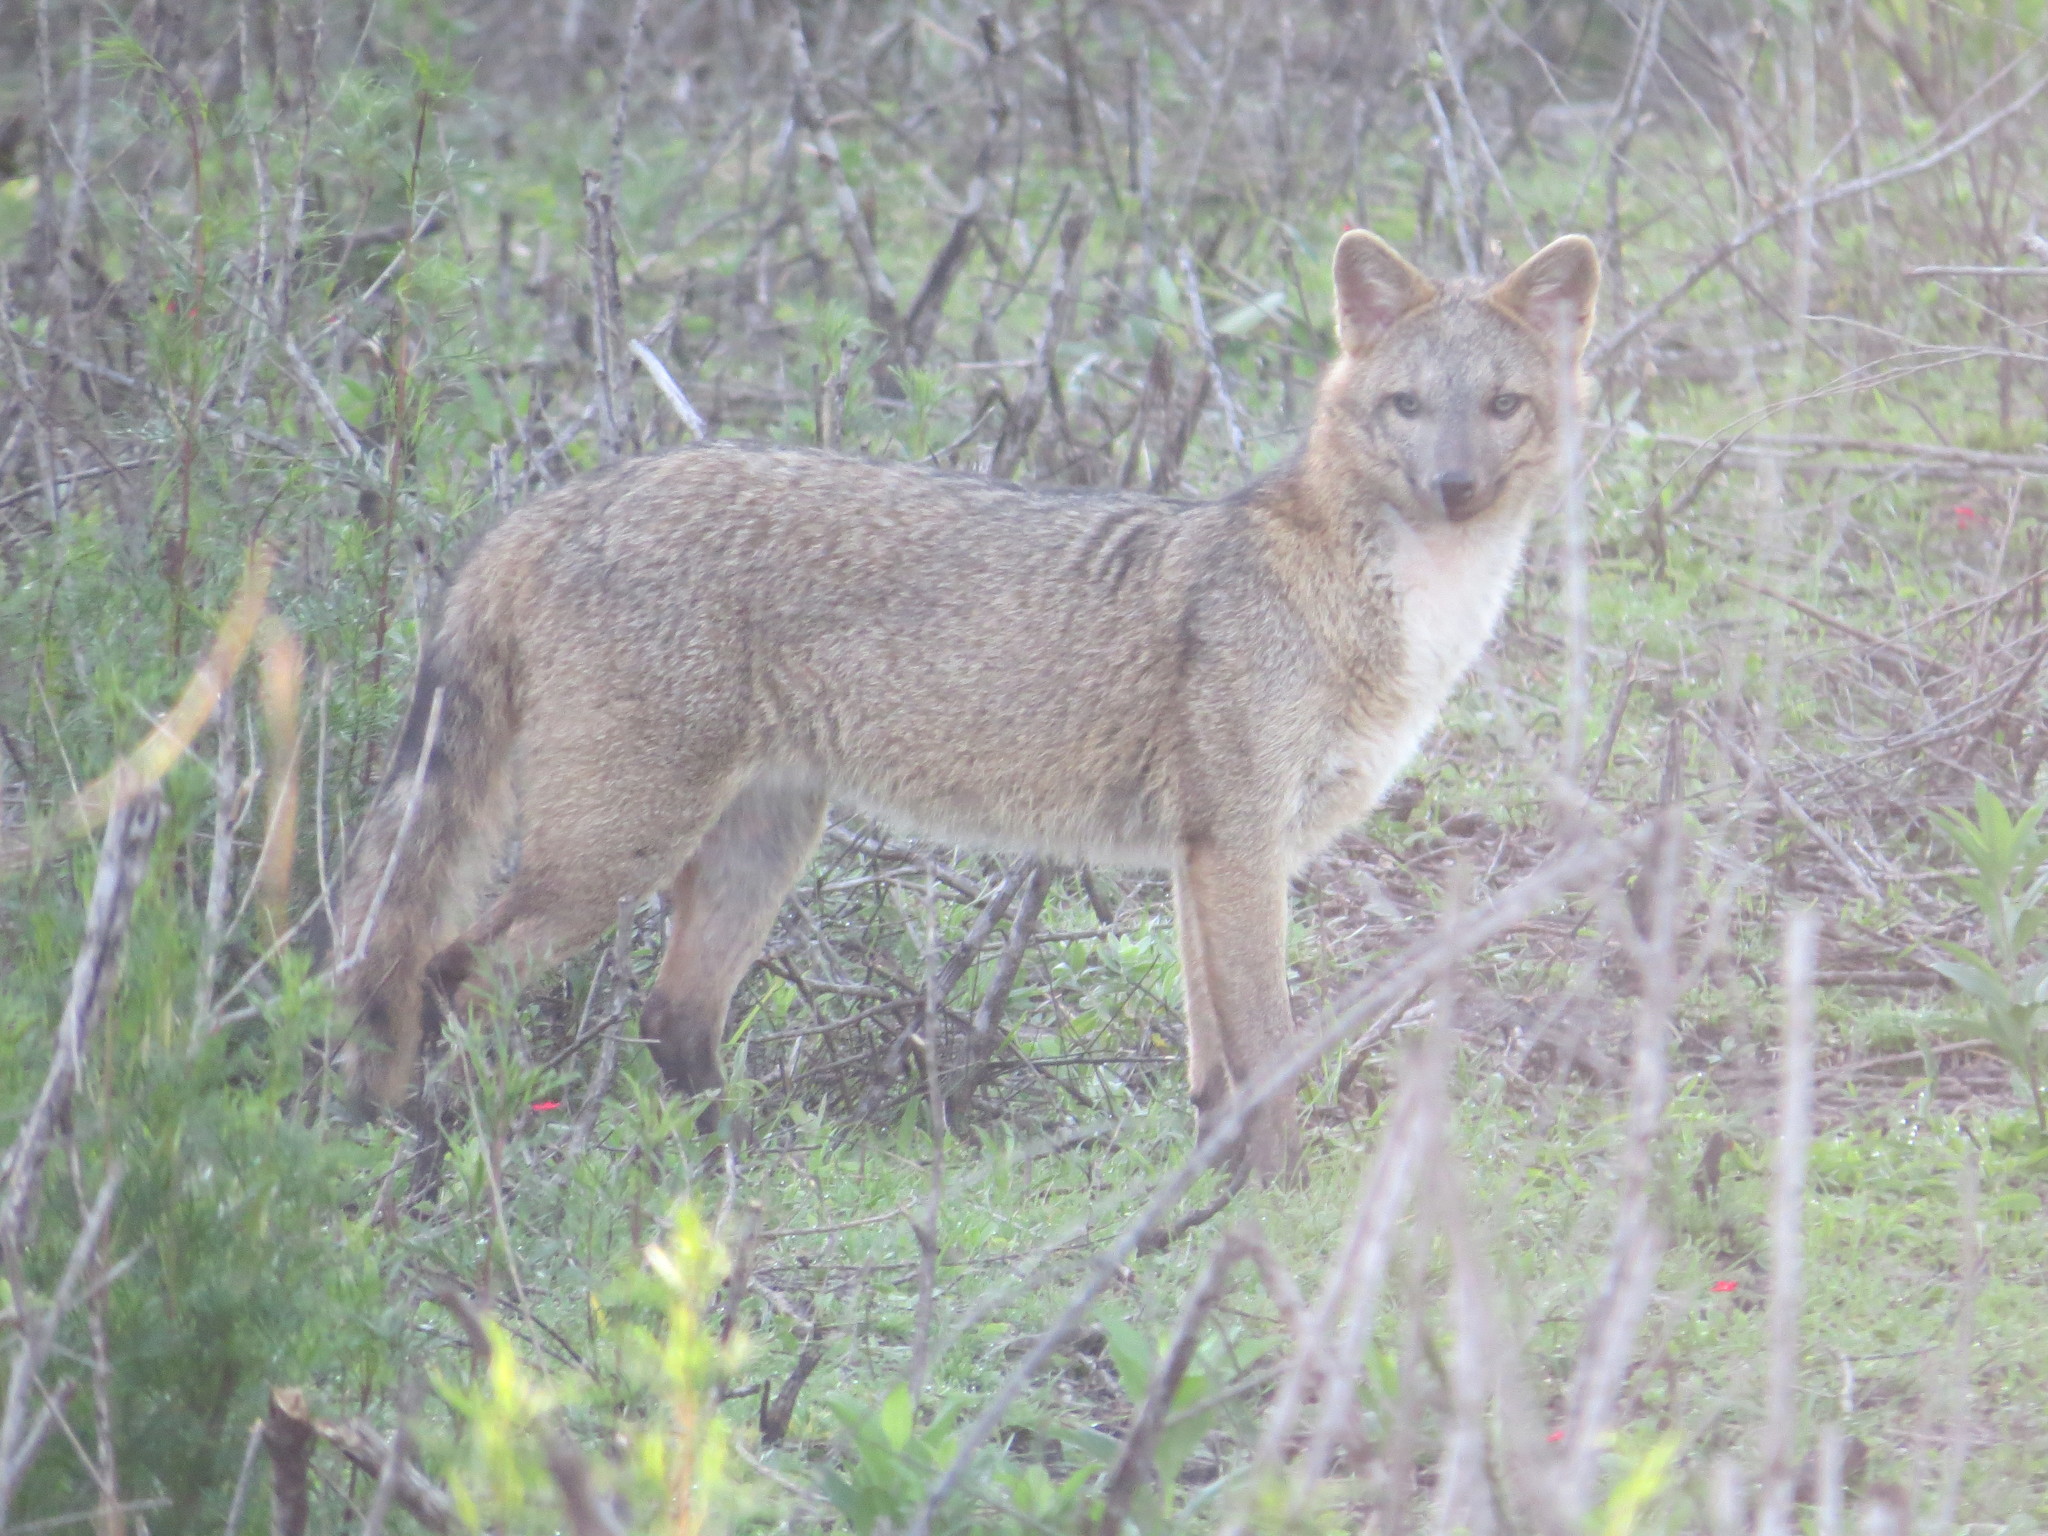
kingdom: Animalia
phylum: Chordata
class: Mammalia
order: Carnivora
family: Canidae
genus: Cerdocyon
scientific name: Cerdocyon thous
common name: Crab-eating fox
